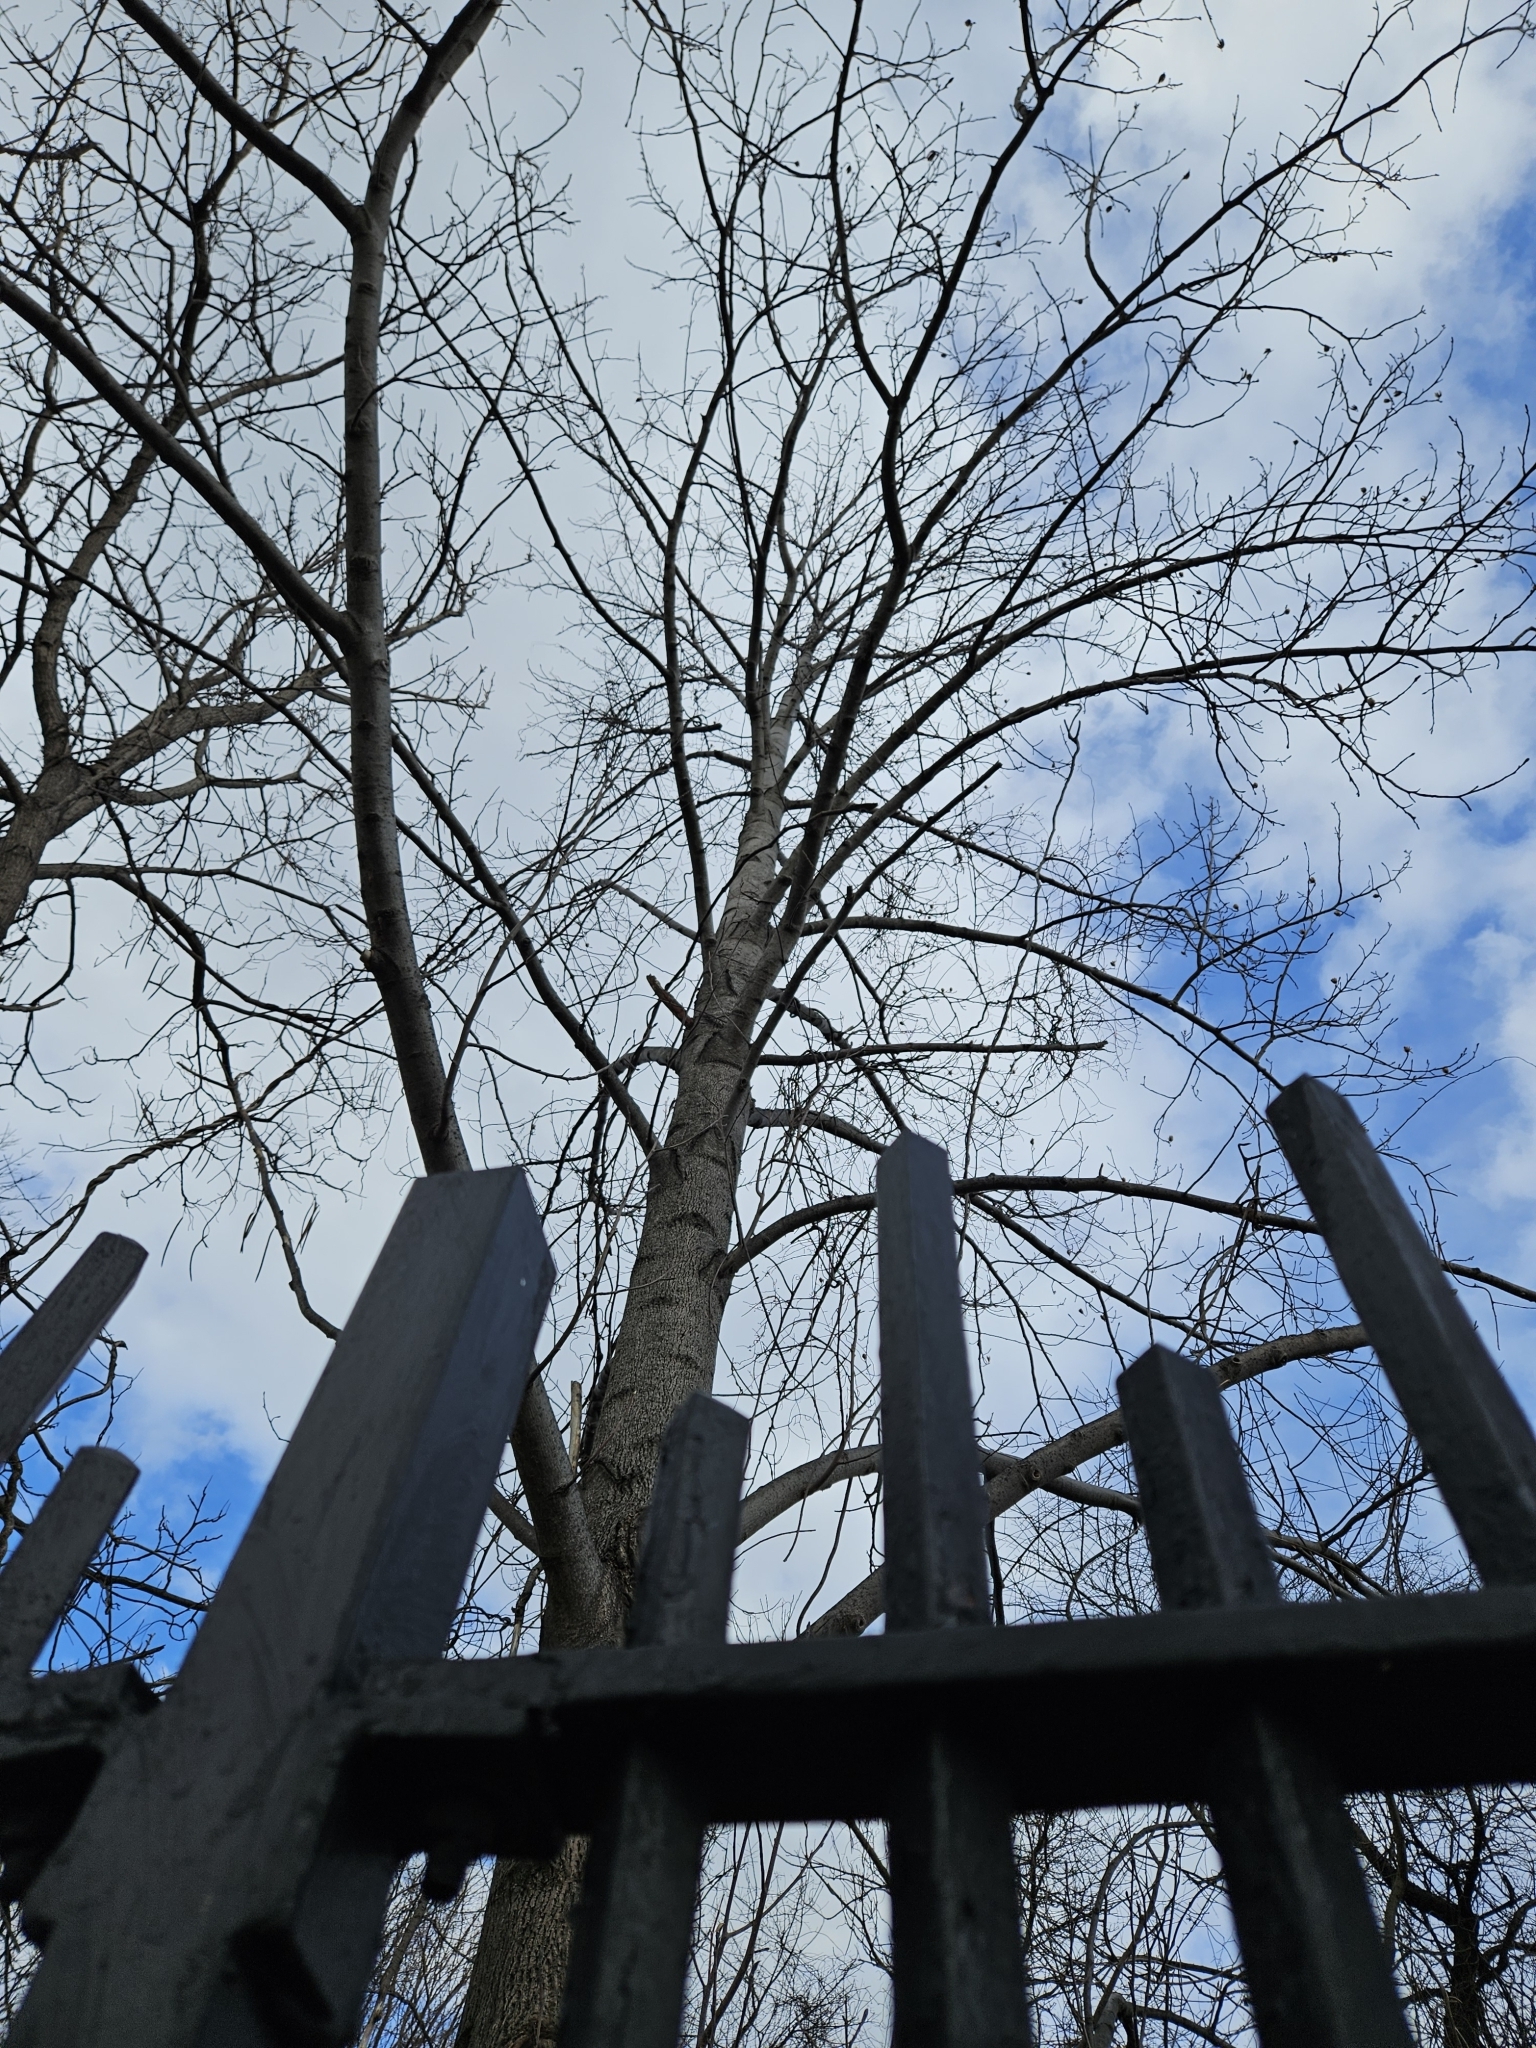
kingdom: Plantae
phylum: Tracheophyta
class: Magnoliopsida
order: Magnoliales
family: Magnoliaceae
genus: Liriodendron
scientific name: Liriodendron tulipifera
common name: Tulip tree
